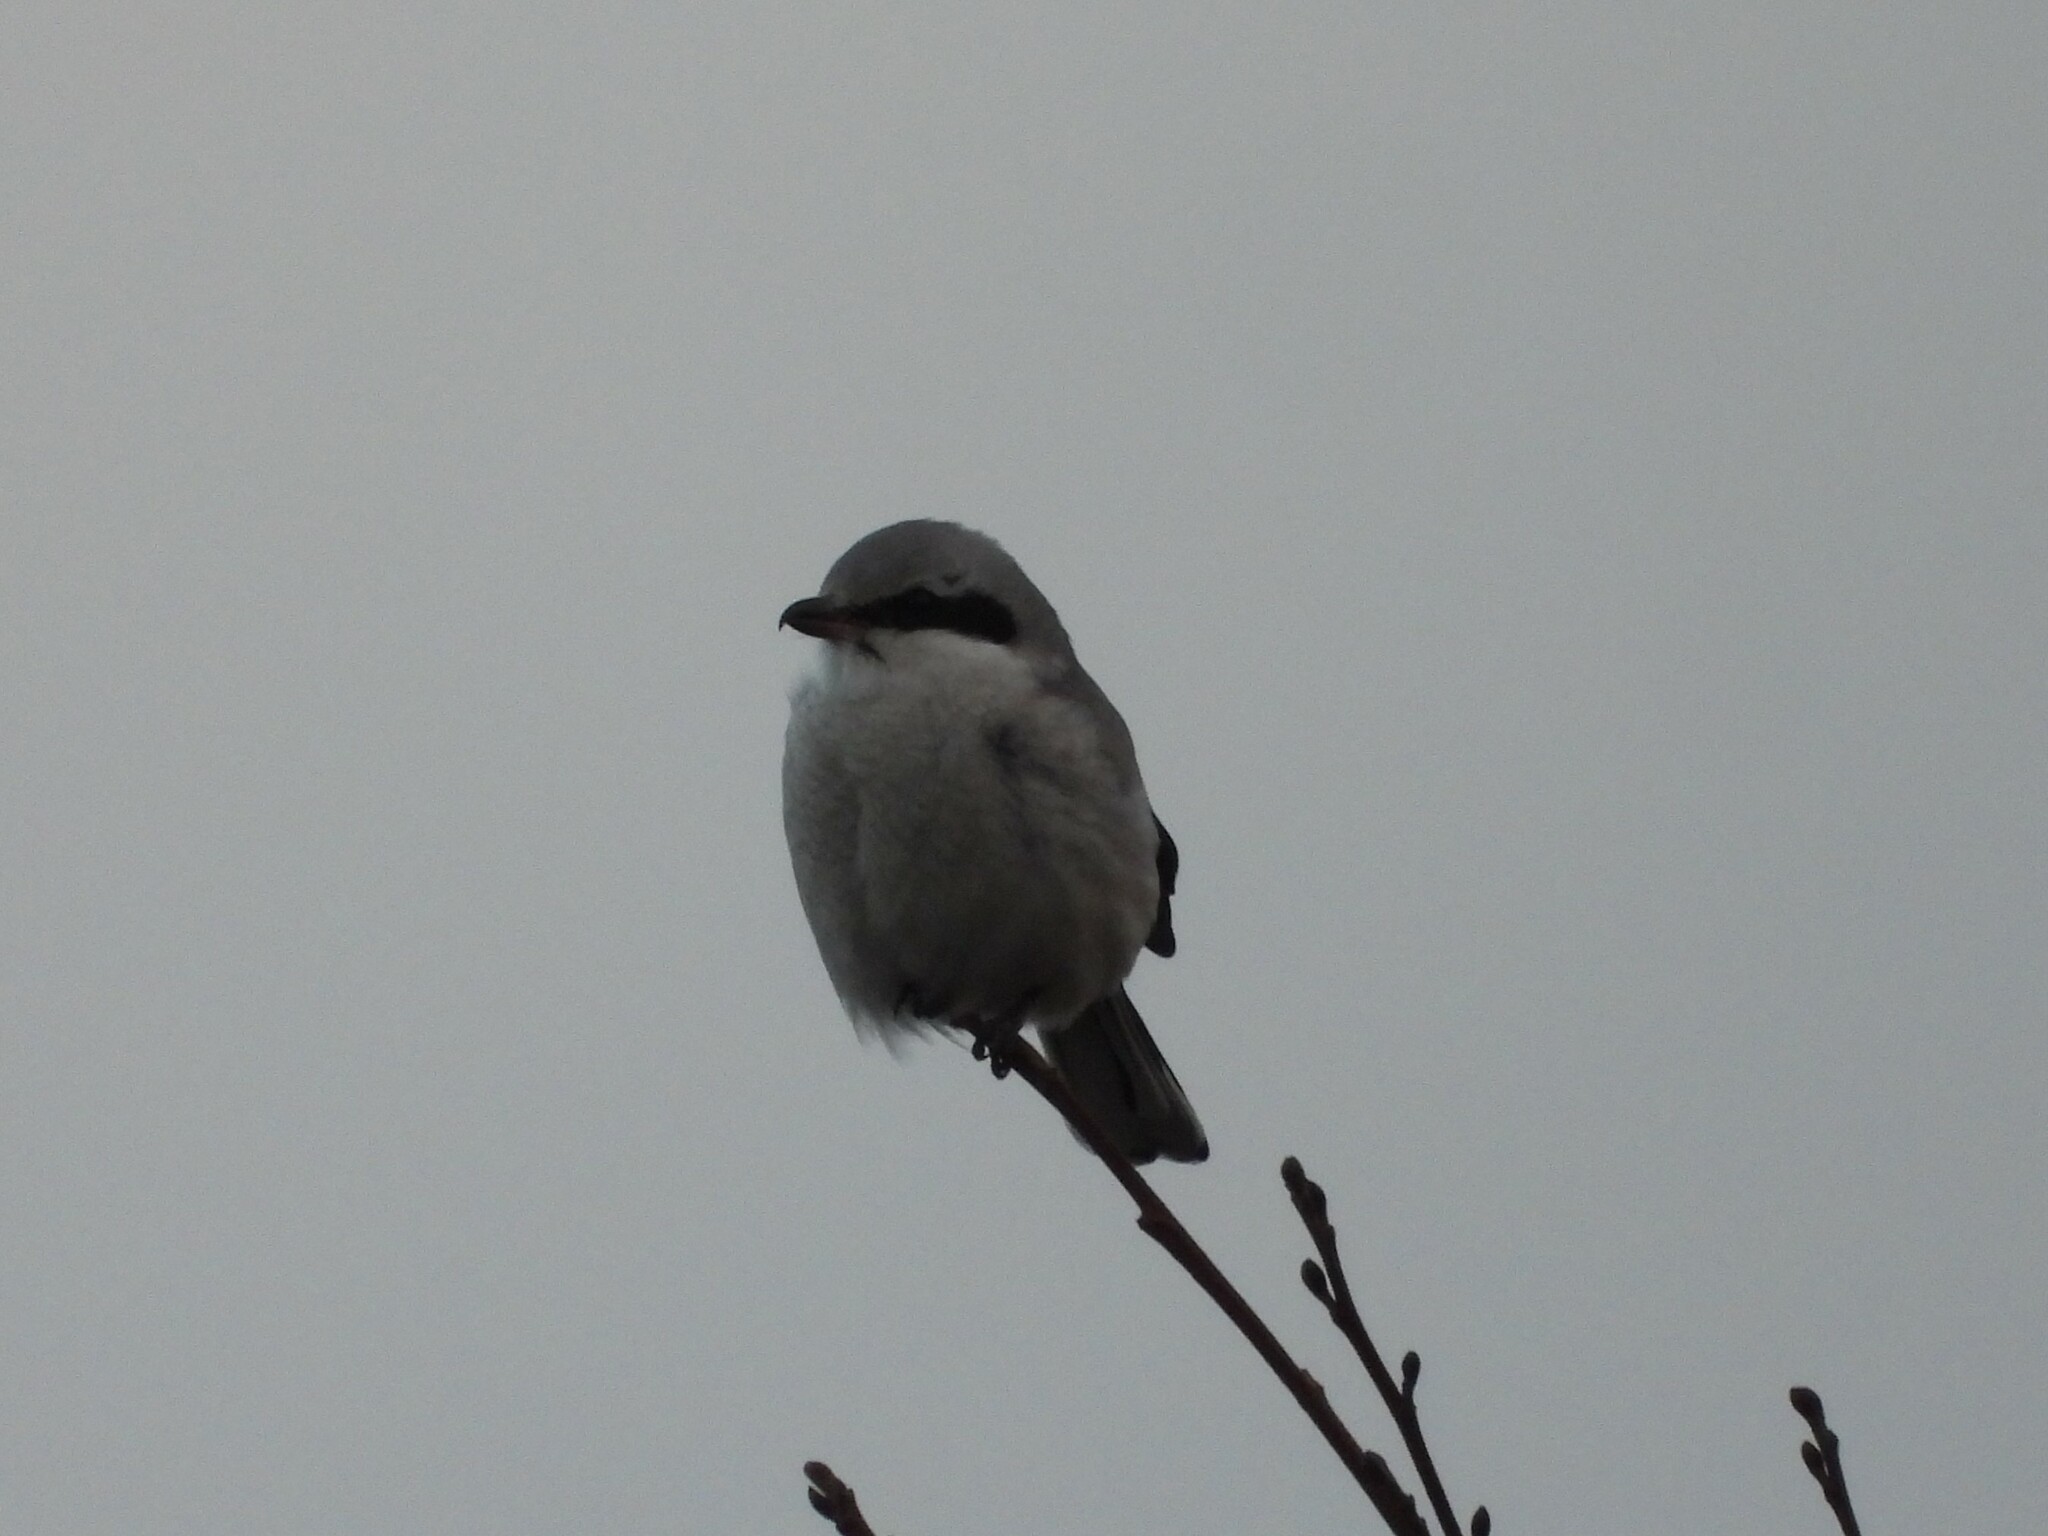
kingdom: Animalia
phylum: Chordata
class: Aves
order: Passeriformes
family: Laniidae
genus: Lanius
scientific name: Lanius excubitor
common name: Great grey shrike
